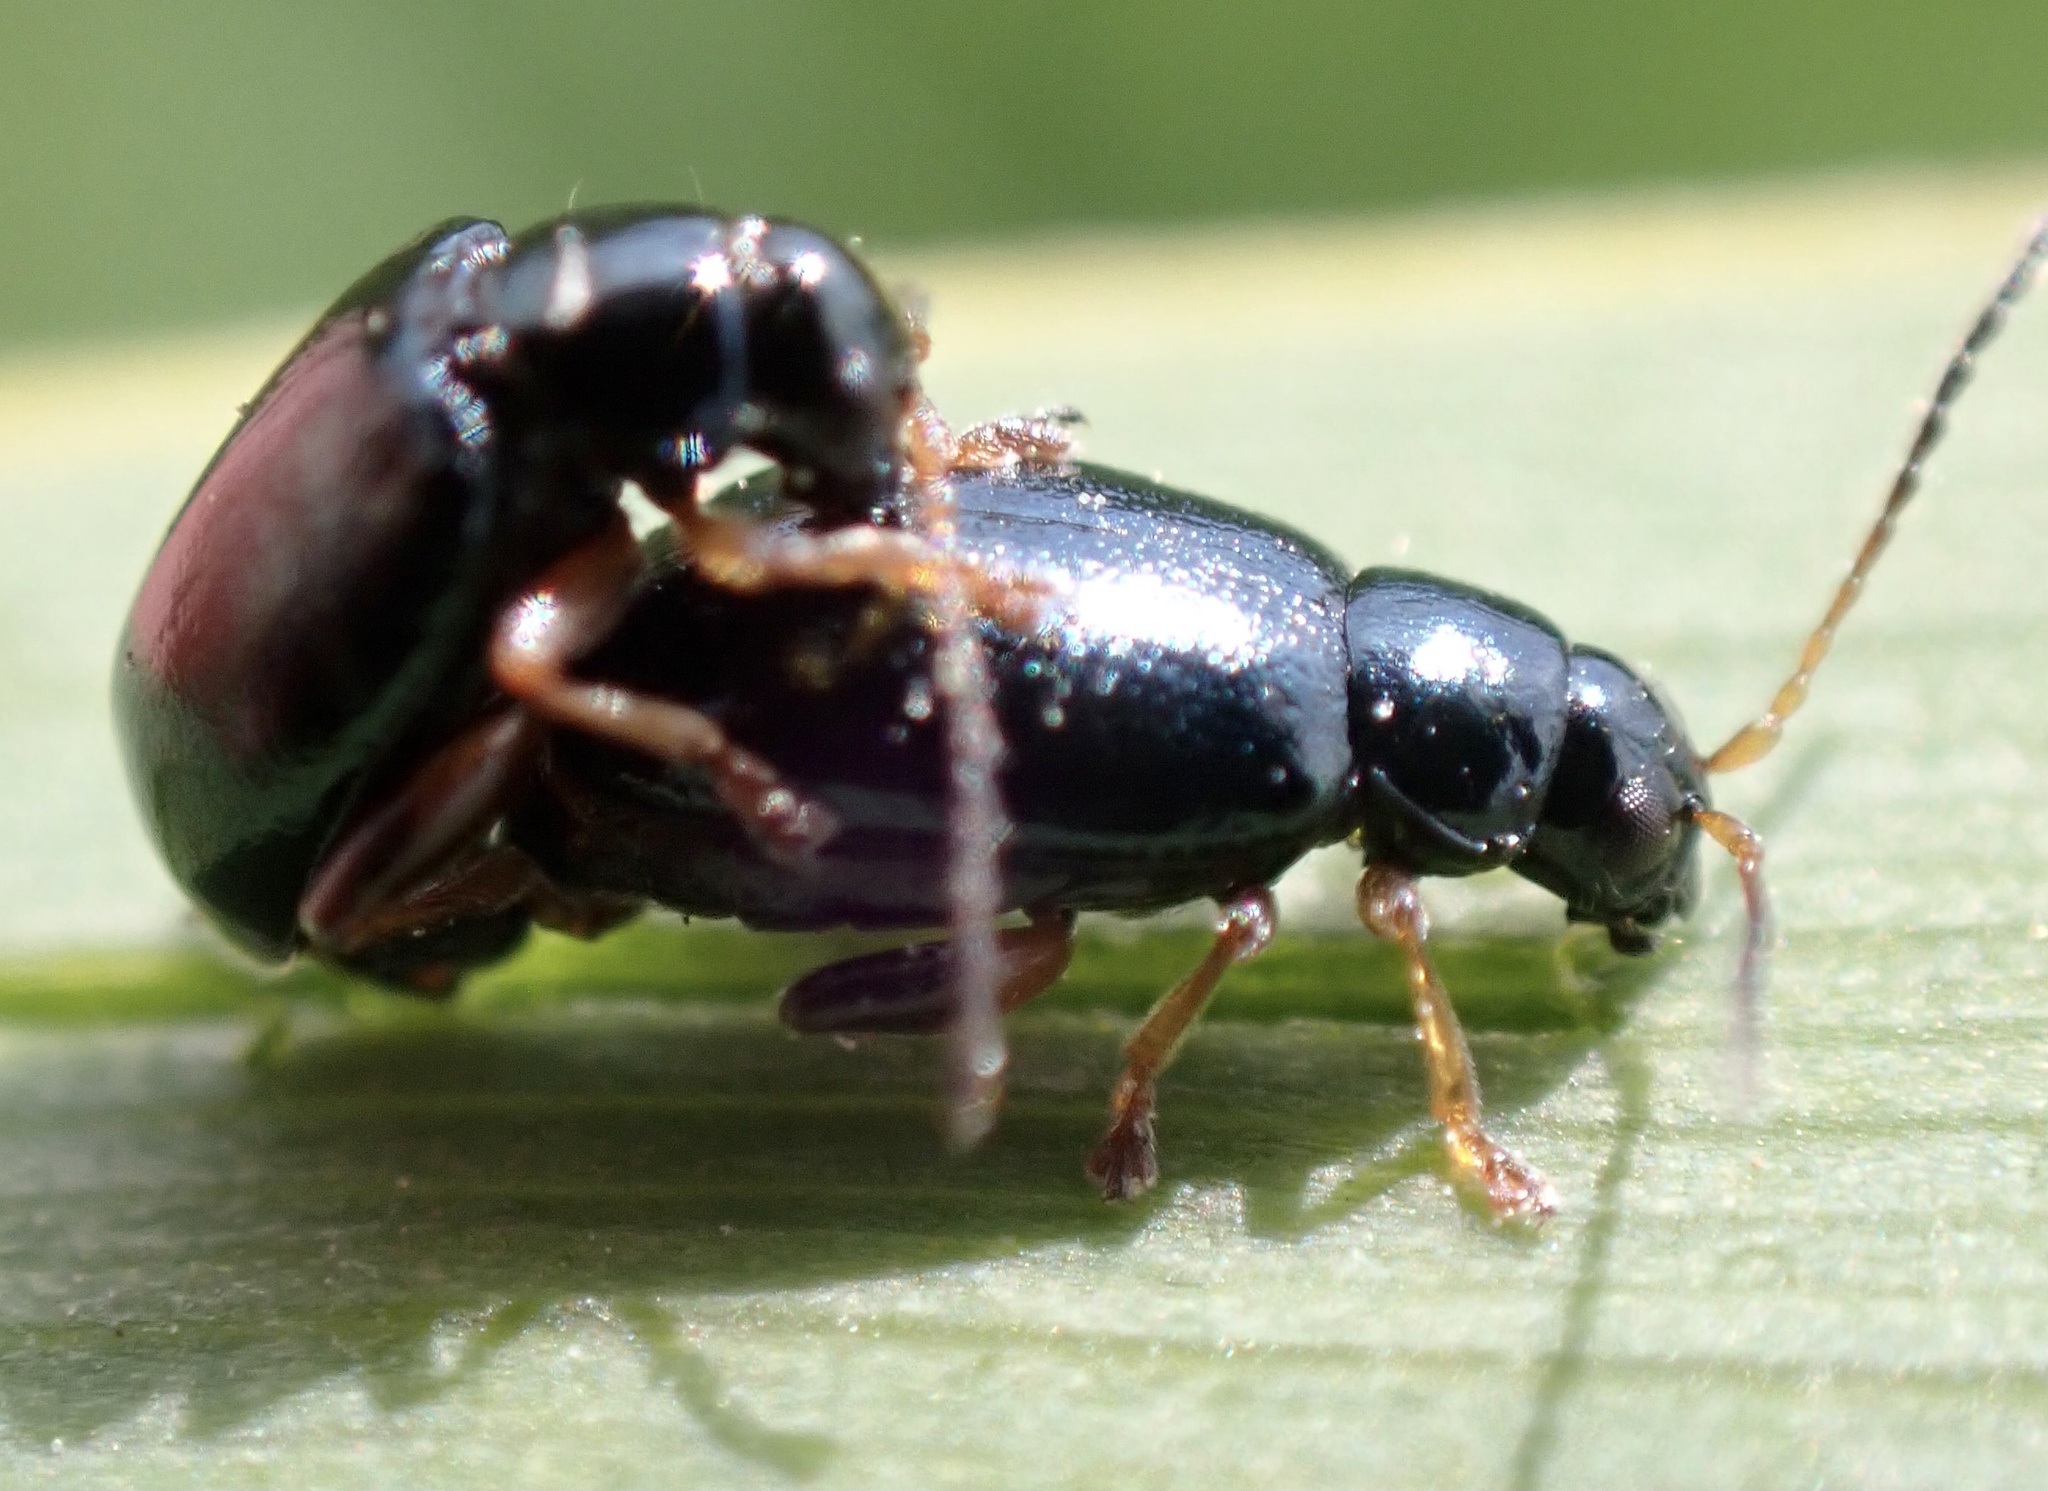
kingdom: Animalia
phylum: Arthropoda
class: Insecta
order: Coleoptera
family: Chrysomelidae
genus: Aphthona
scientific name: Aphthona nonstriata
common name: Iris flea beetle
